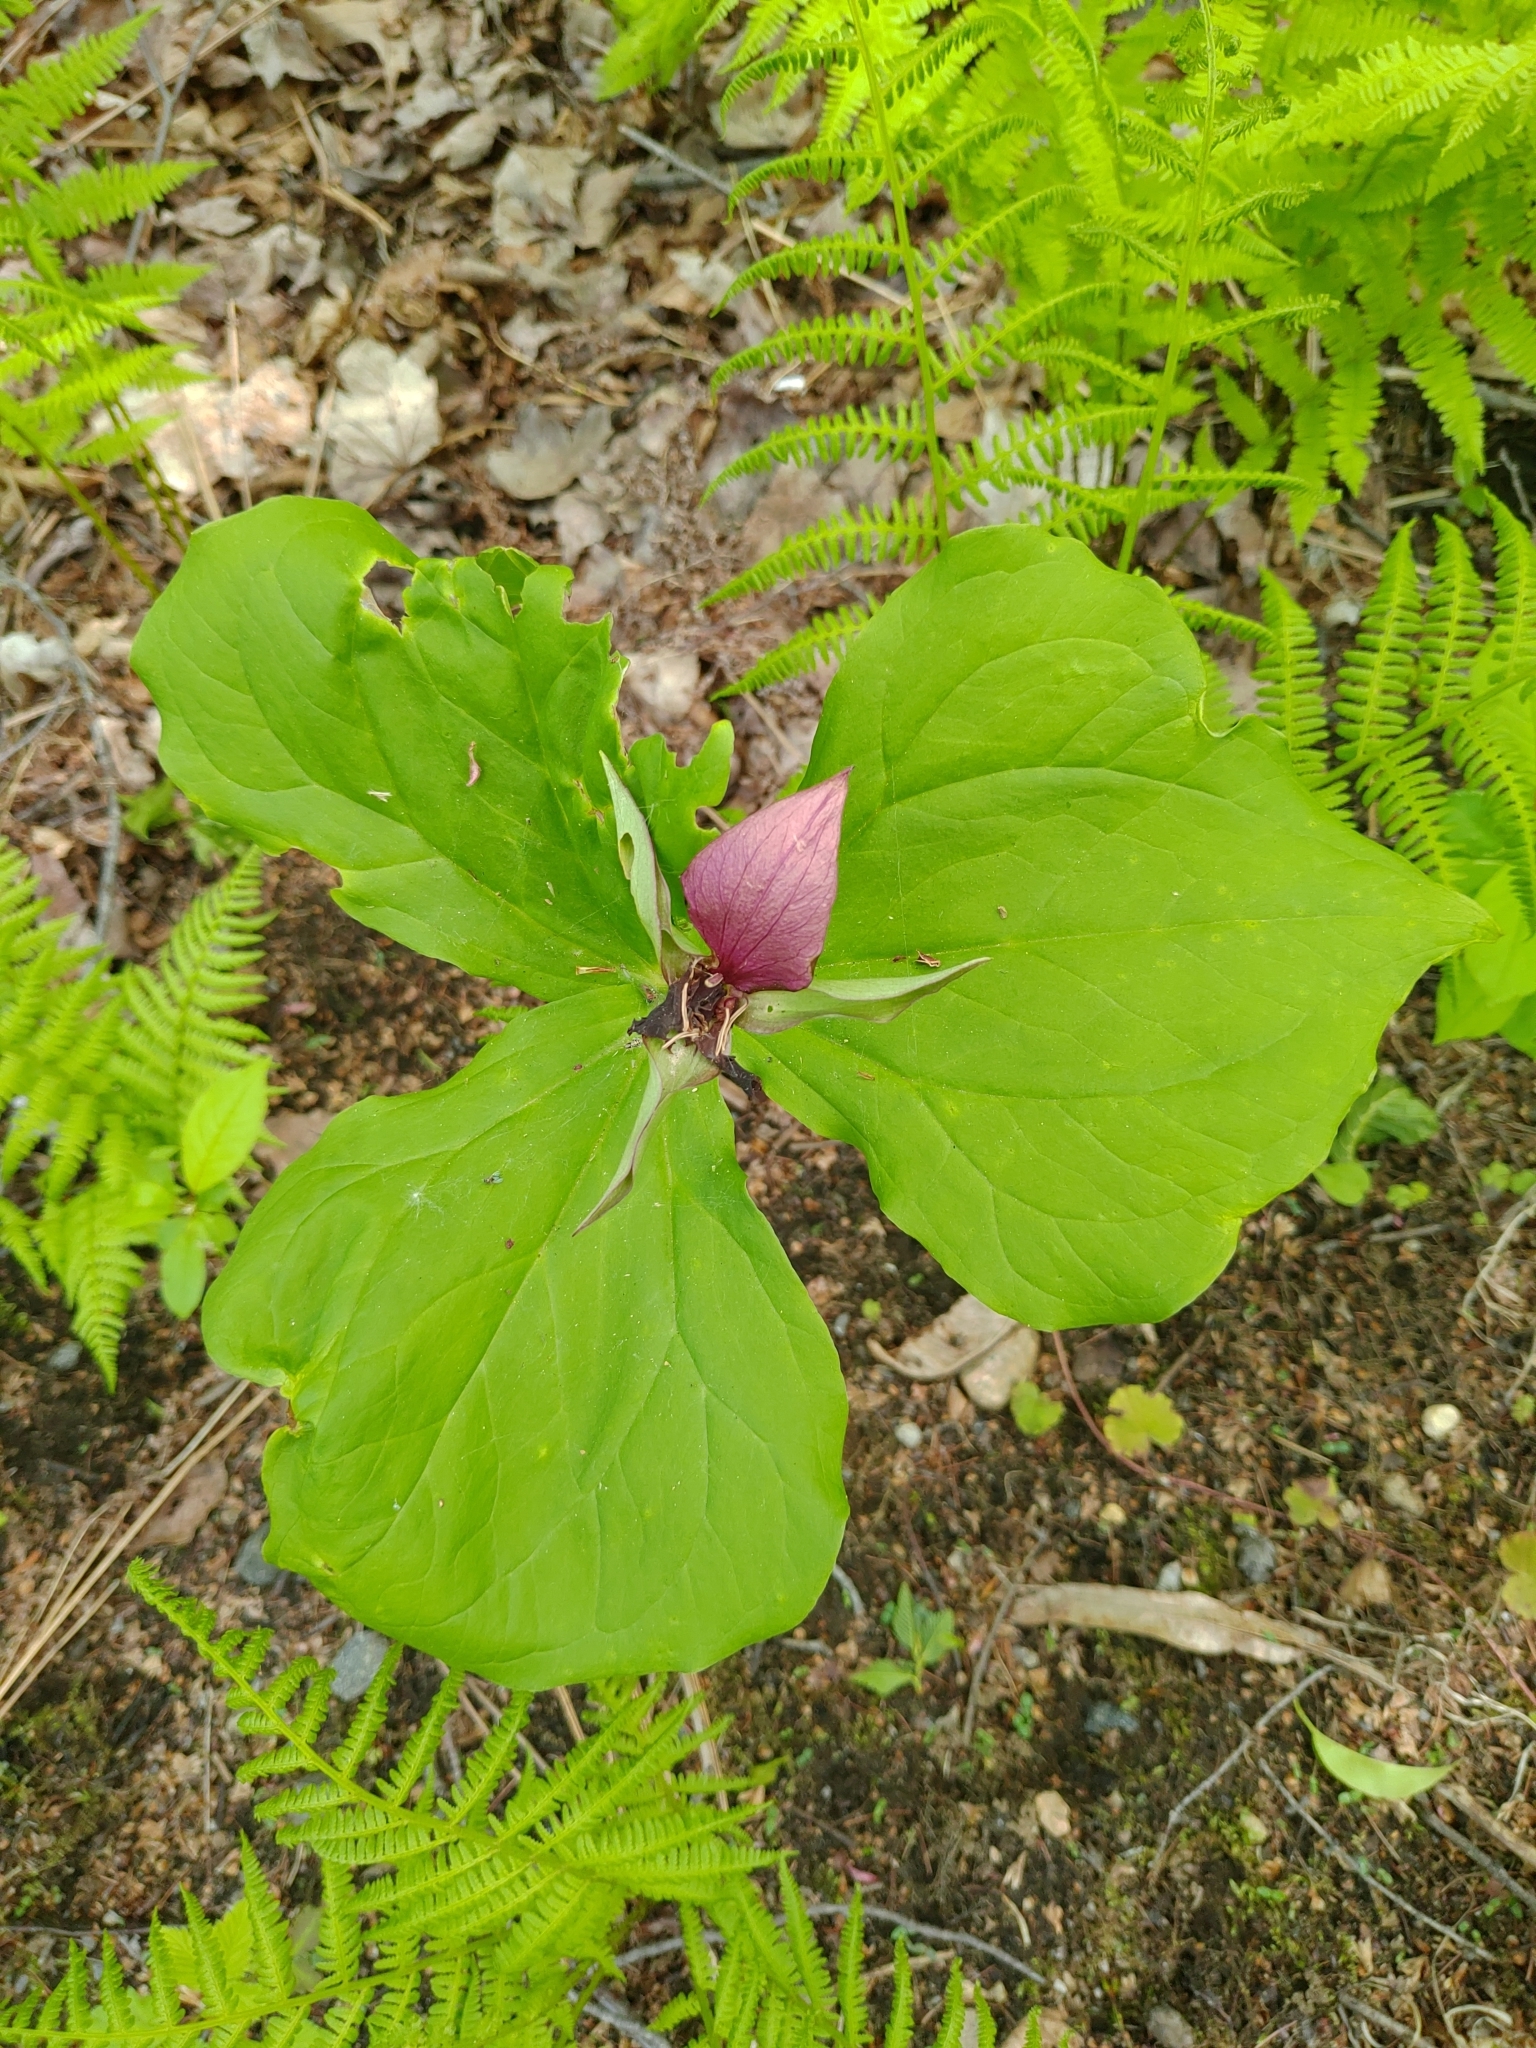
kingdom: Plantae
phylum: Tracheophyta
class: Liliopsida
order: Liliales
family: Melanthiaceae
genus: Trillium
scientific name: Trillium erectum
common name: Purple trillium
